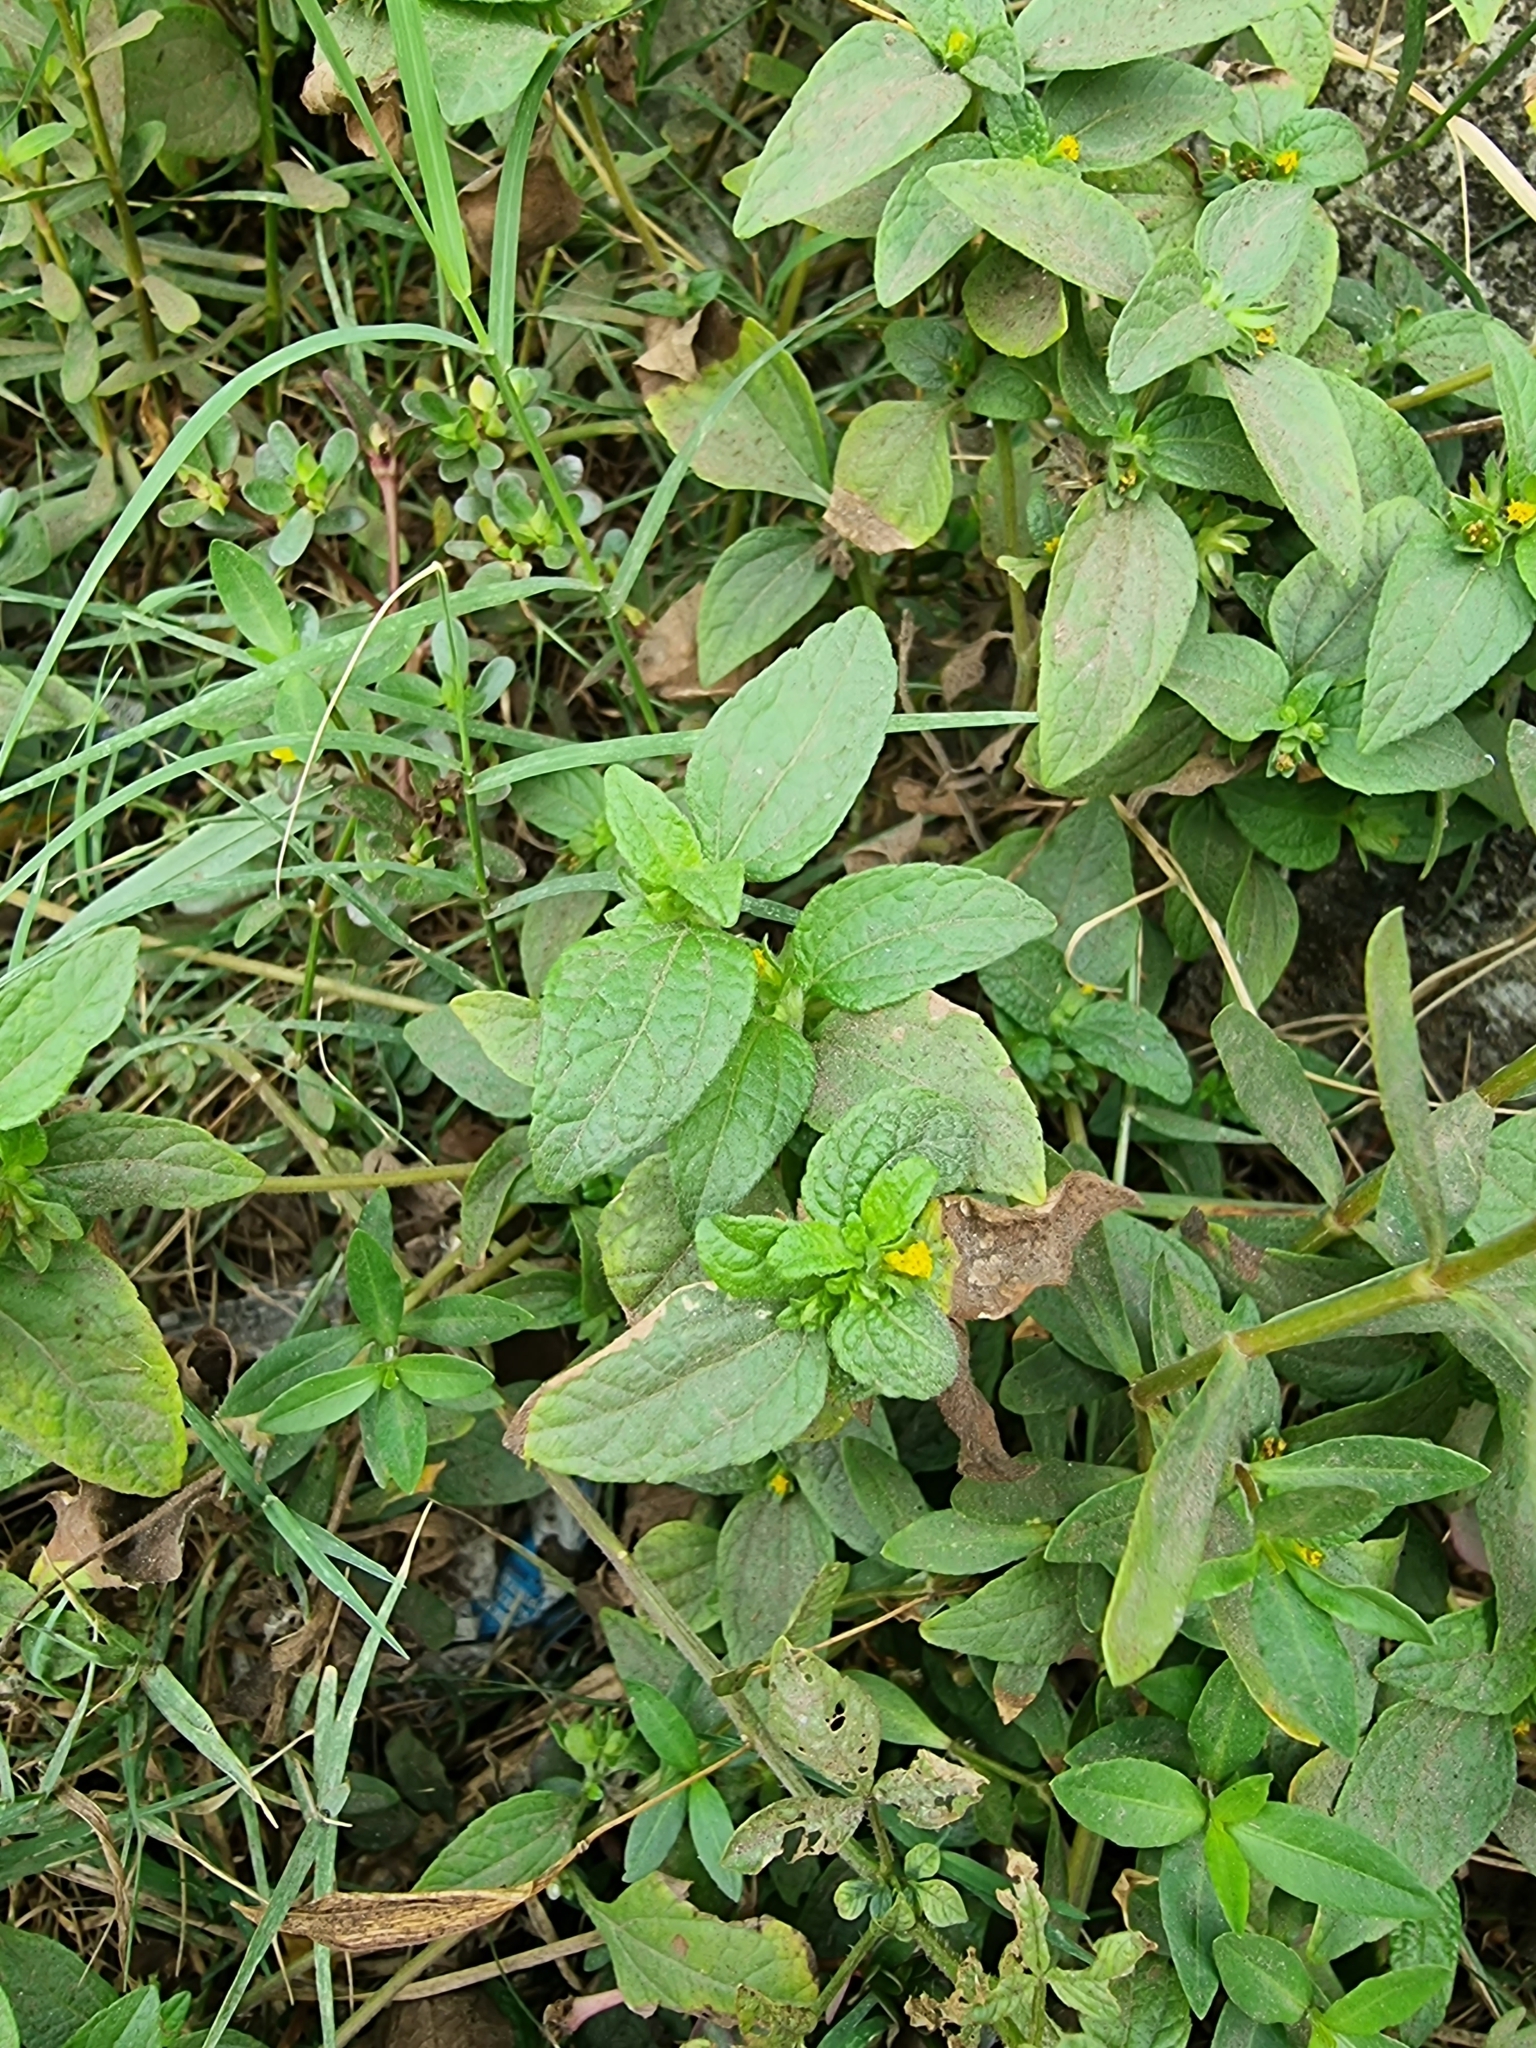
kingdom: Plantae
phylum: Tracheophyta
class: Magnoliopsida
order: Asterales
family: Asteraceae
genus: Synedrella
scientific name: Synedrella nodiflora
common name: Nodeweed
